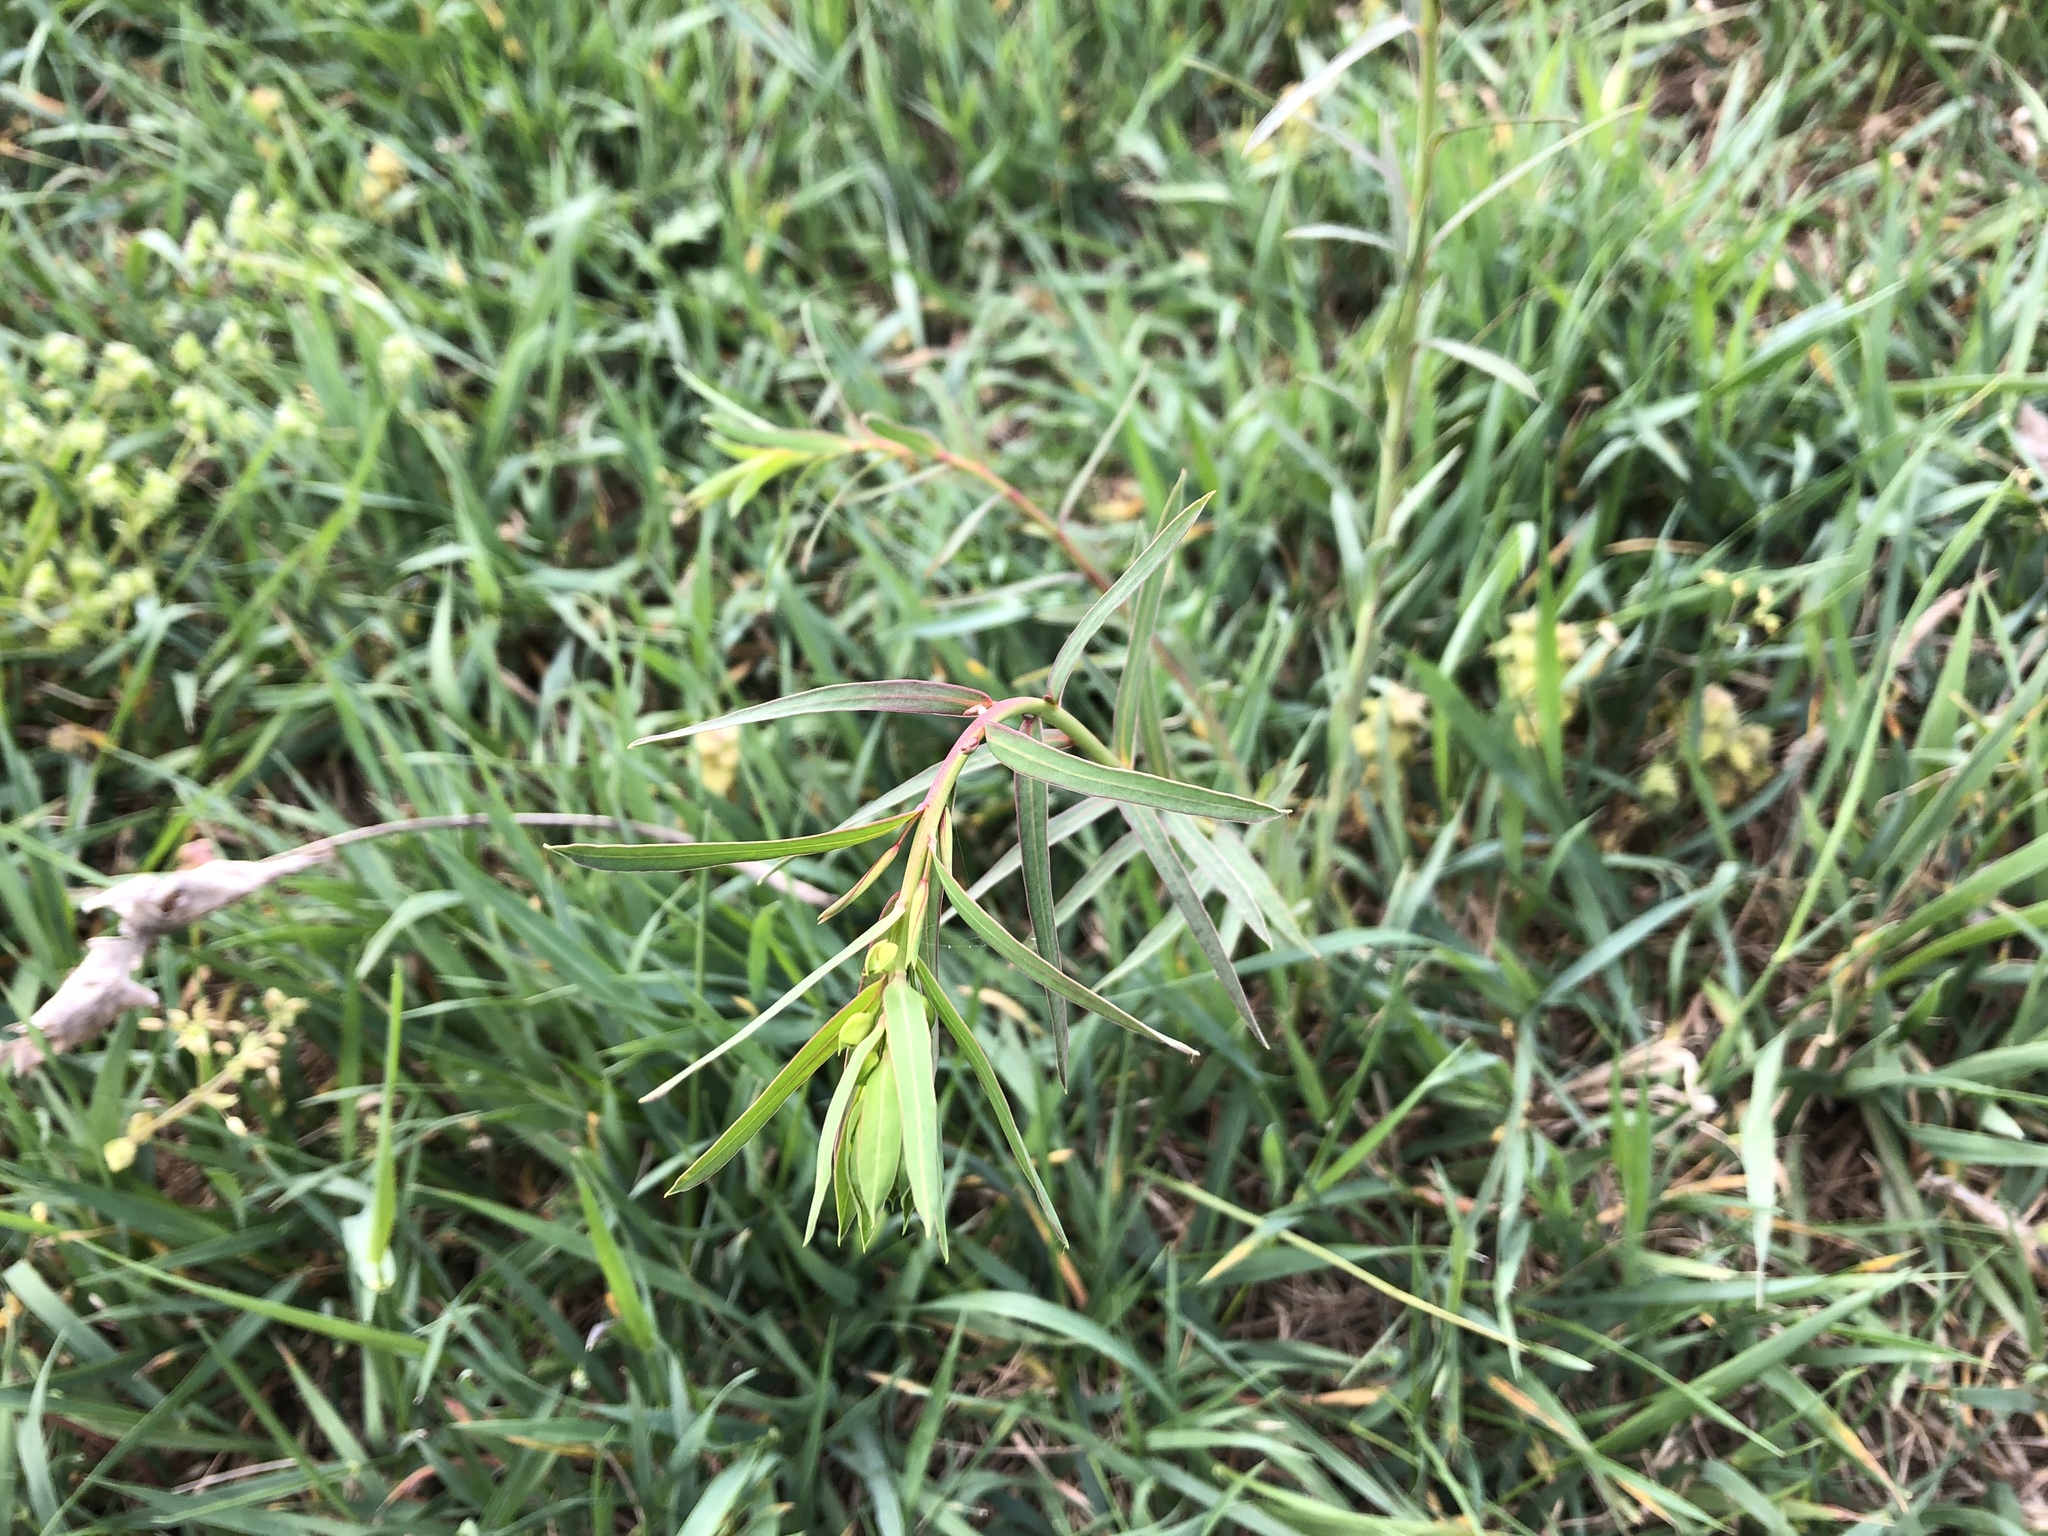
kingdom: Plantae
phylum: Tracheophyta
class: Magnoliopsida
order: Malpighiales
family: Euphorbiaceae
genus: Euphorbia
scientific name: Euphorbia virgata
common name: Leafy spurge
